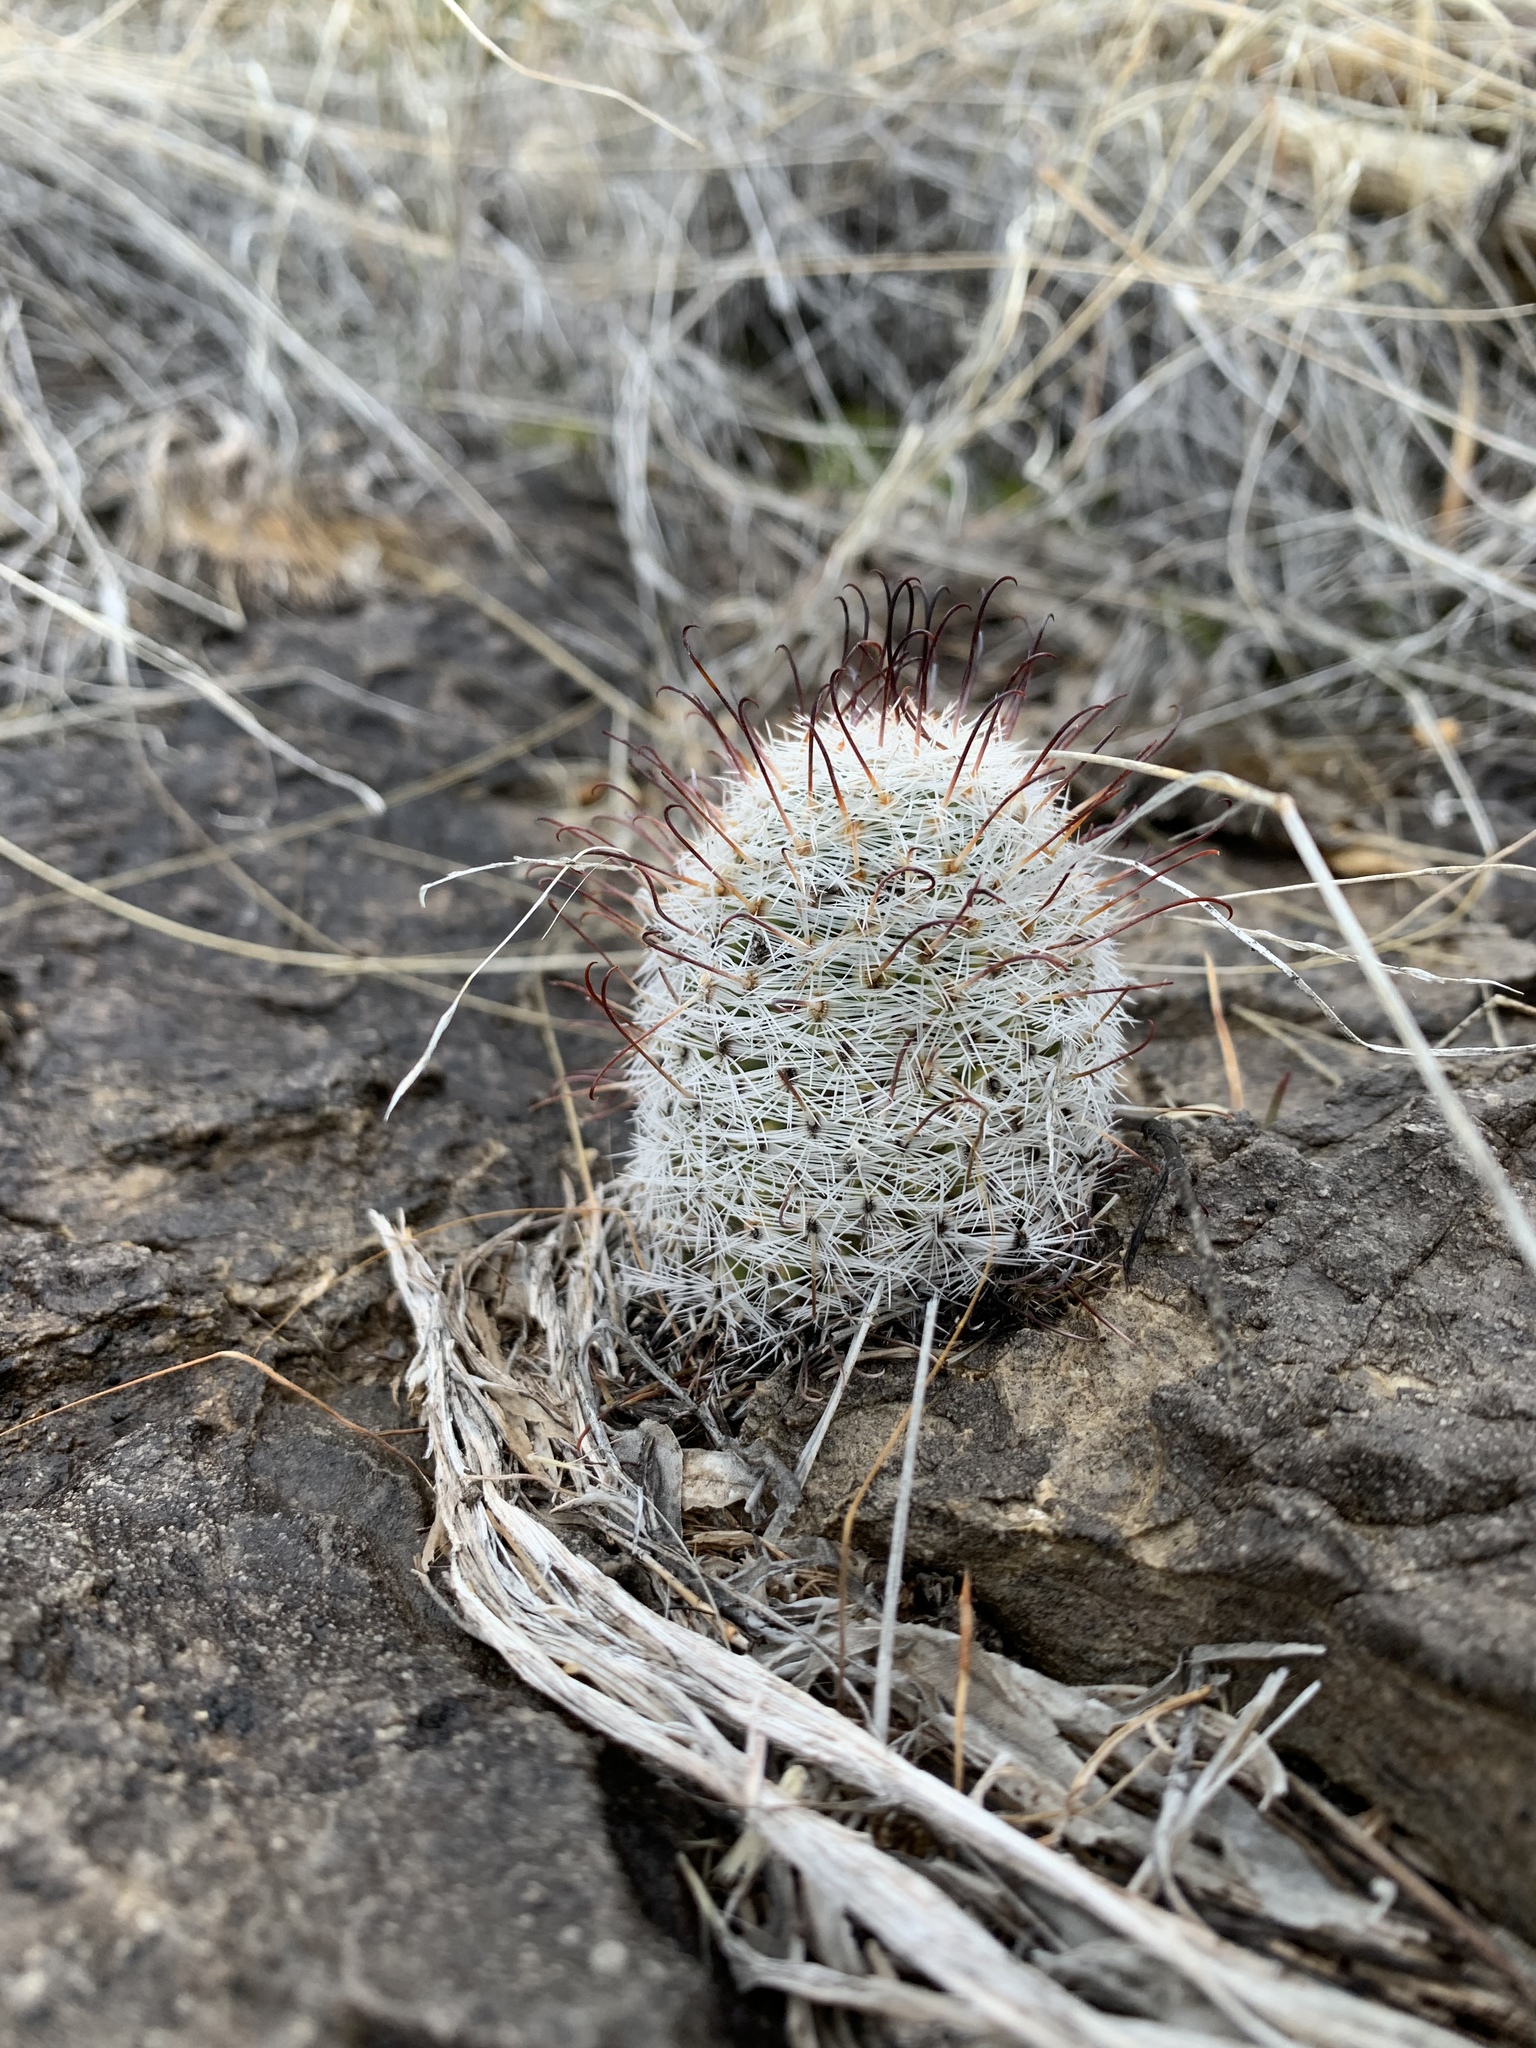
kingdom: Plantae
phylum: Tracheophyta
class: Magnoliopsida
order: Caryophyllales
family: Cactaceae
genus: Cochemiea
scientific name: Cochemiea grahamii
